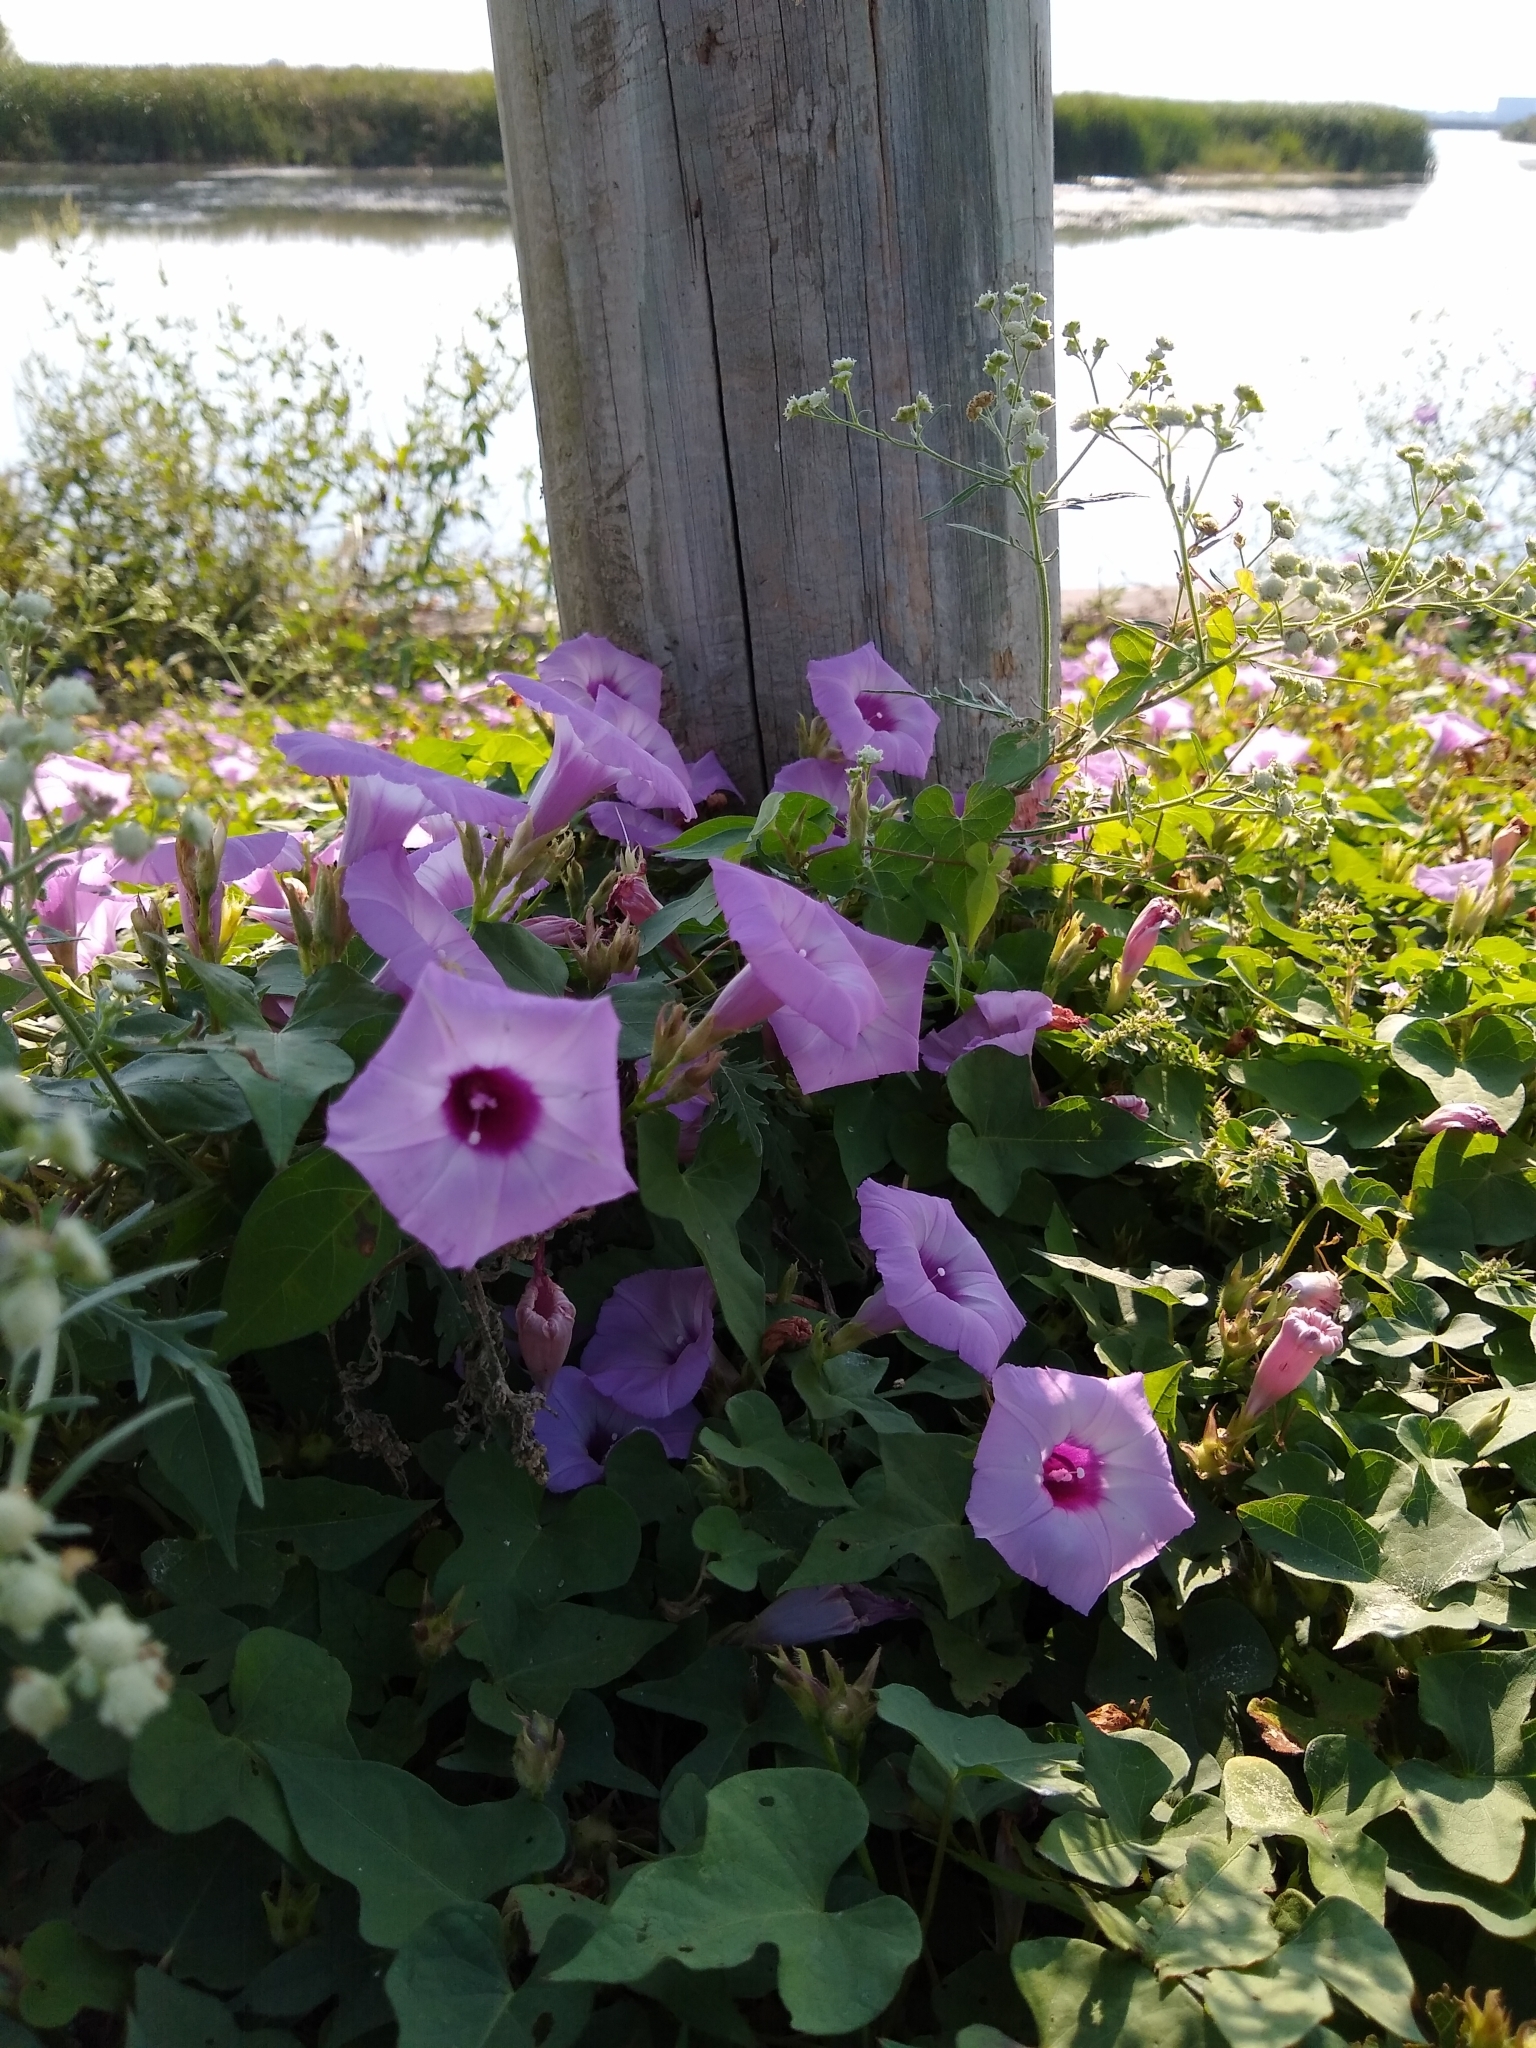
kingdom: Plantae
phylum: Tracheophyta
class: Magnoliopsida
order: Solanales
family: Convolvulaceae
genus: Ipomoea
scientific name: Ipomoea cordatotriloba
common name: Cotton morning glory
